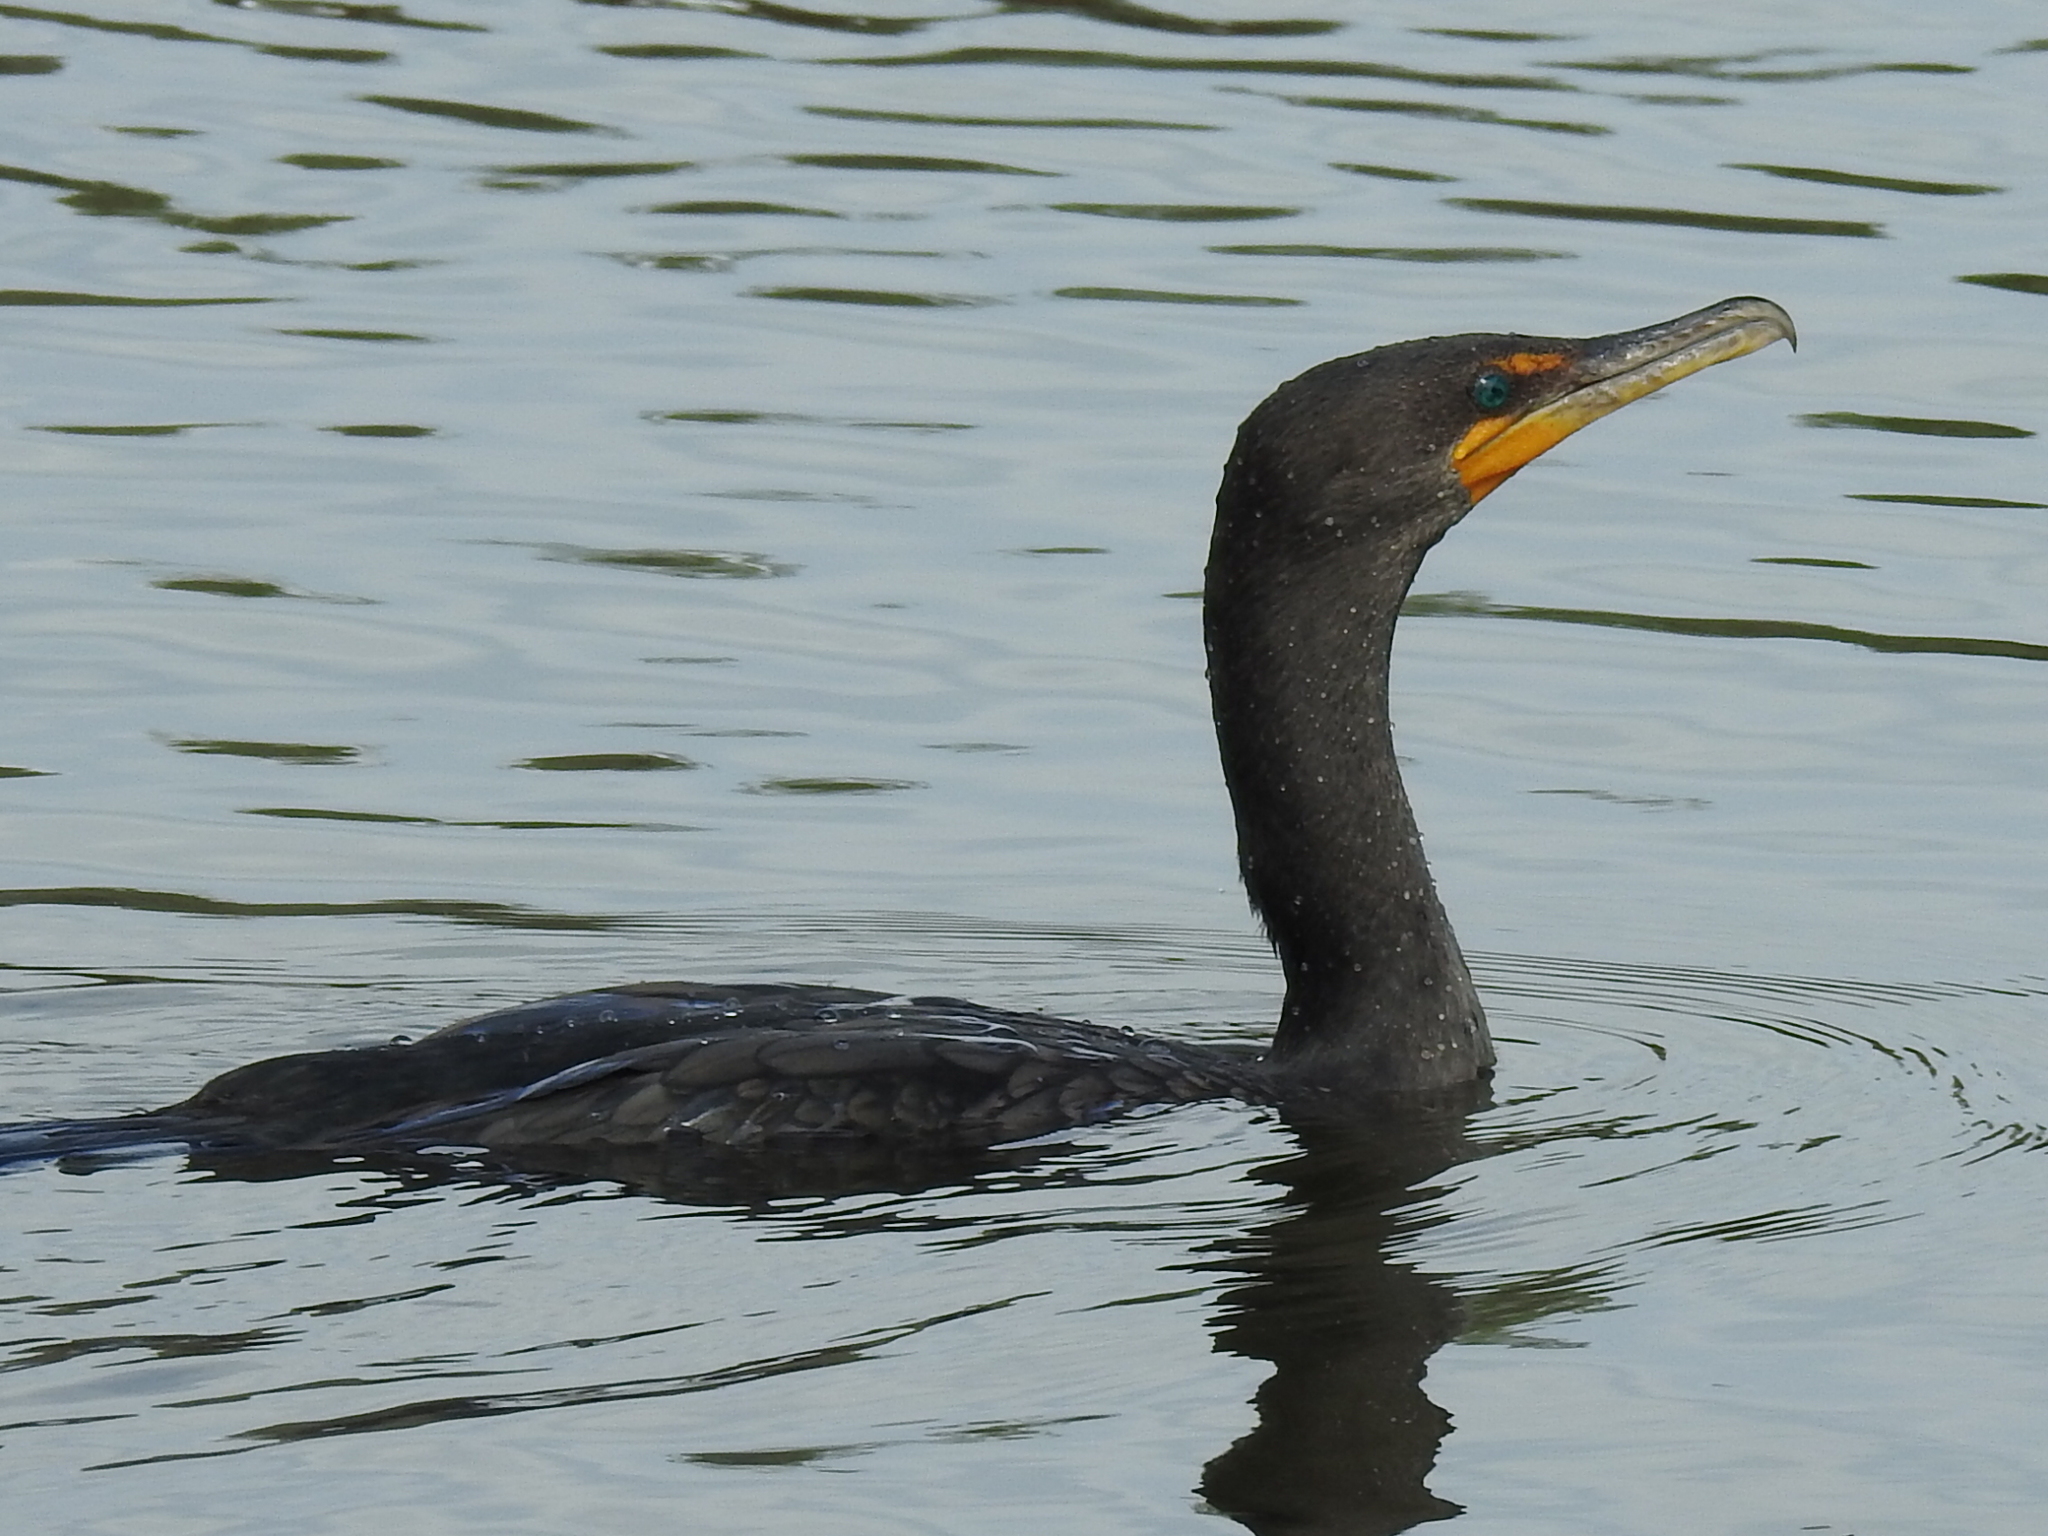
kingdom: Animalia
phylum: Chordata
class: Aves
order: Suliformes
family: Phalacrocoracidae
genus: Phalacrocorax
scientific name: Phalacrocorax auritus
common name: Double-crested cormorant
